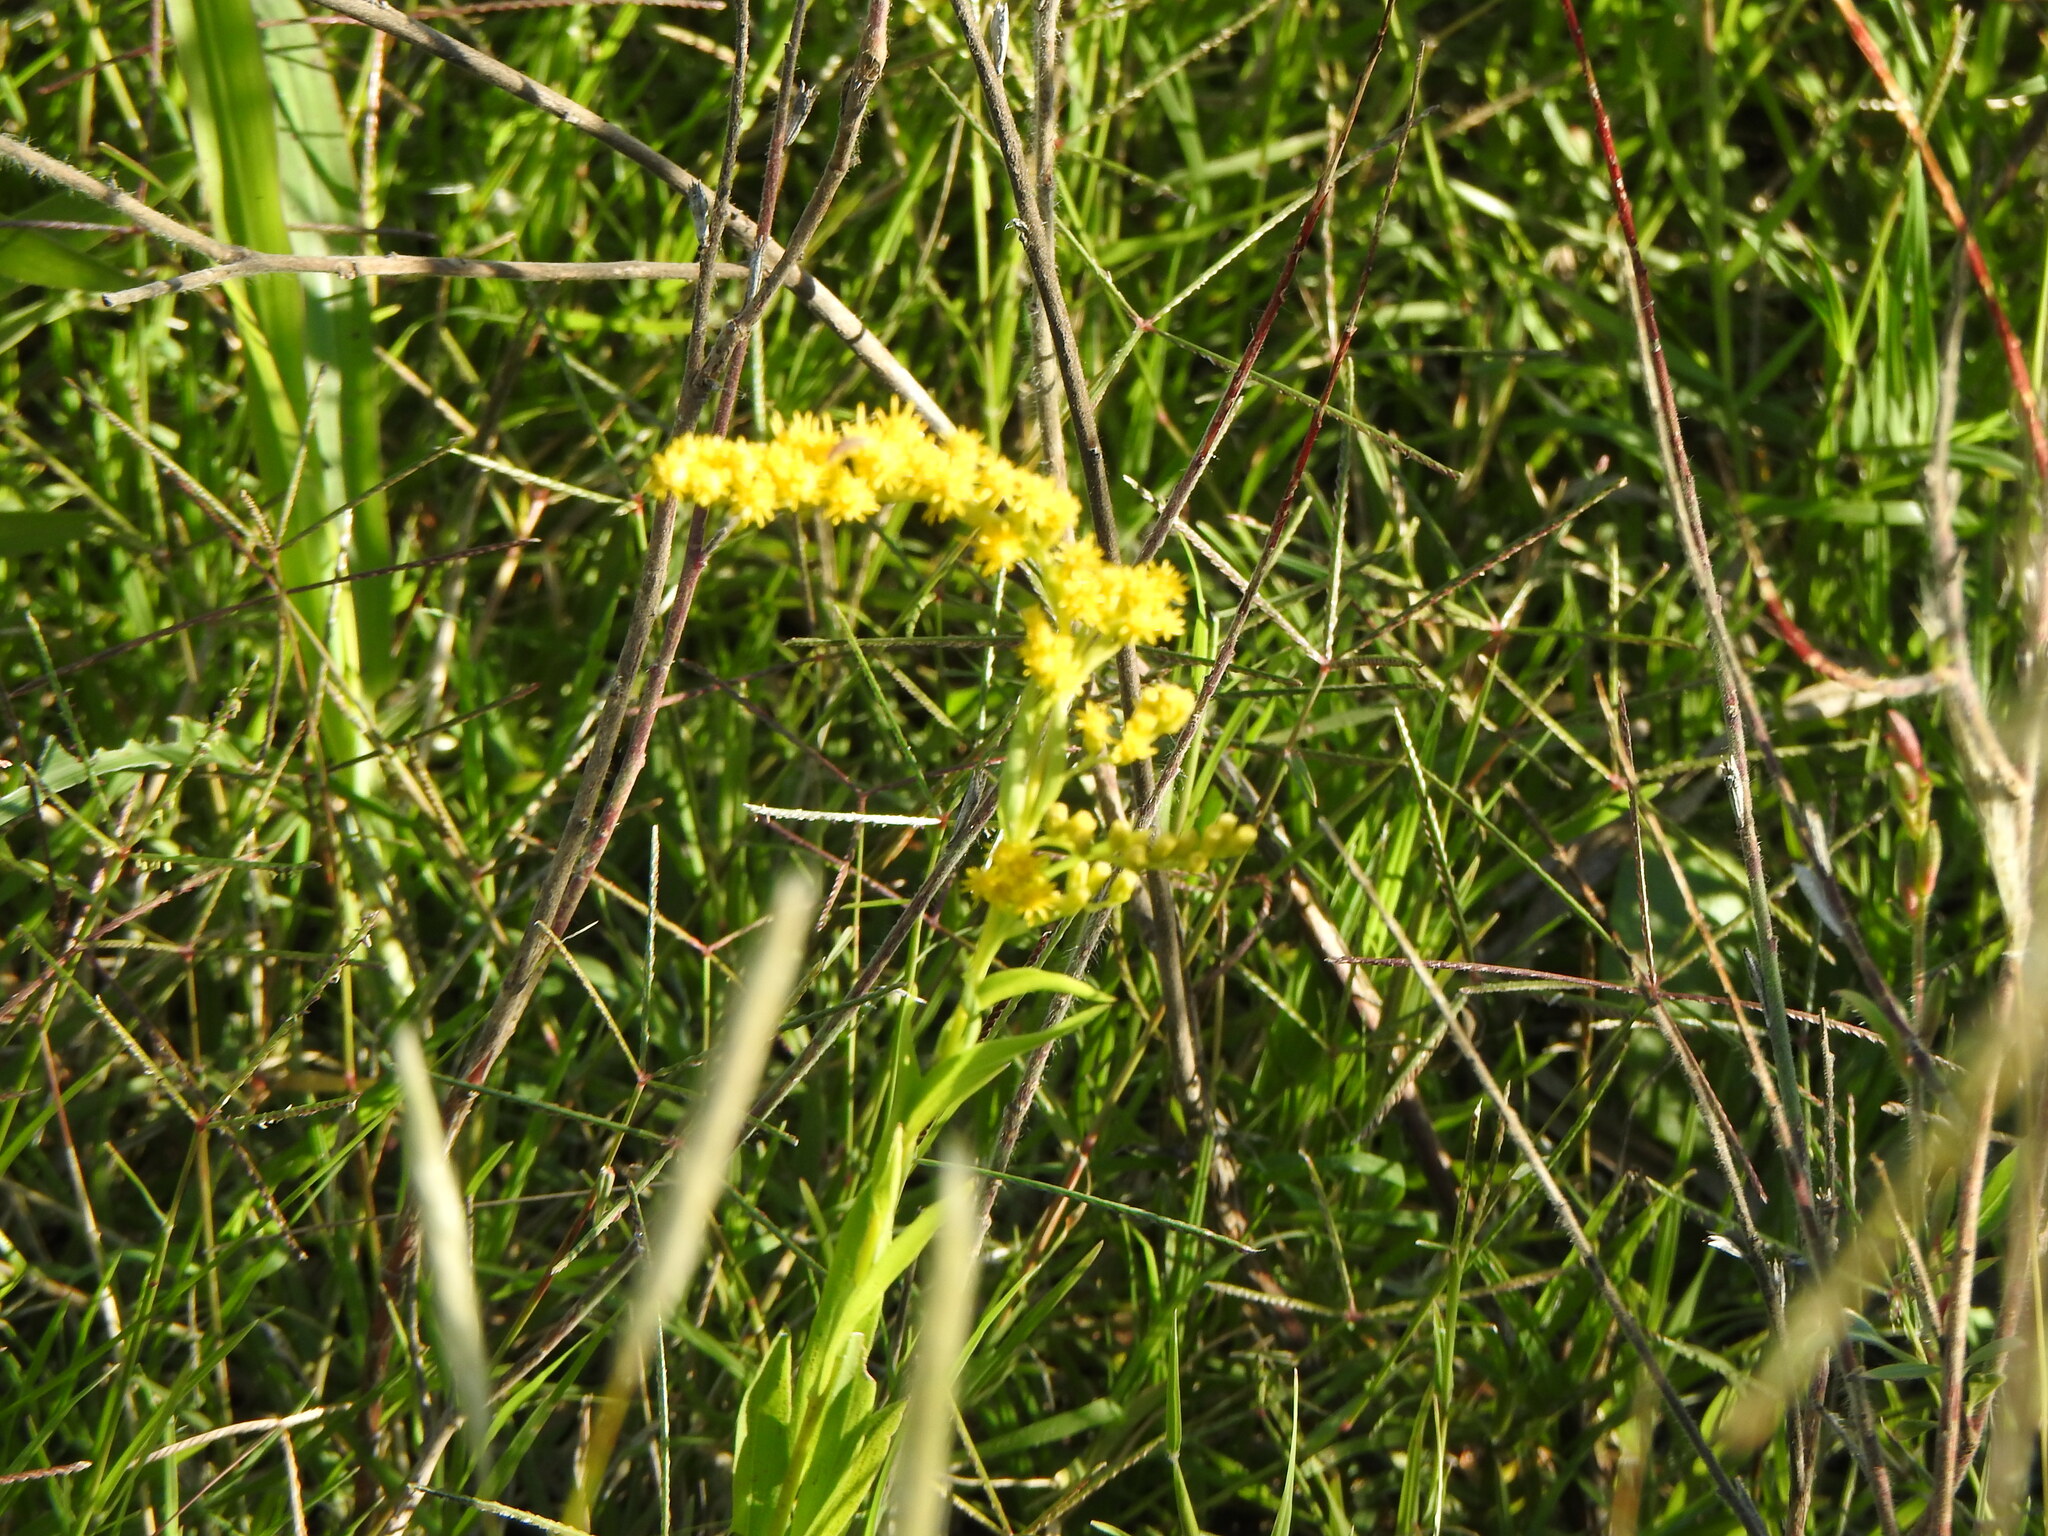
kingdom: Plantae
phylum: Tracheophyta
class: Magnoliopsida
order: Asterales
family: Asteraceae
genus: Solidago
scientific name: Solidago chilensis
